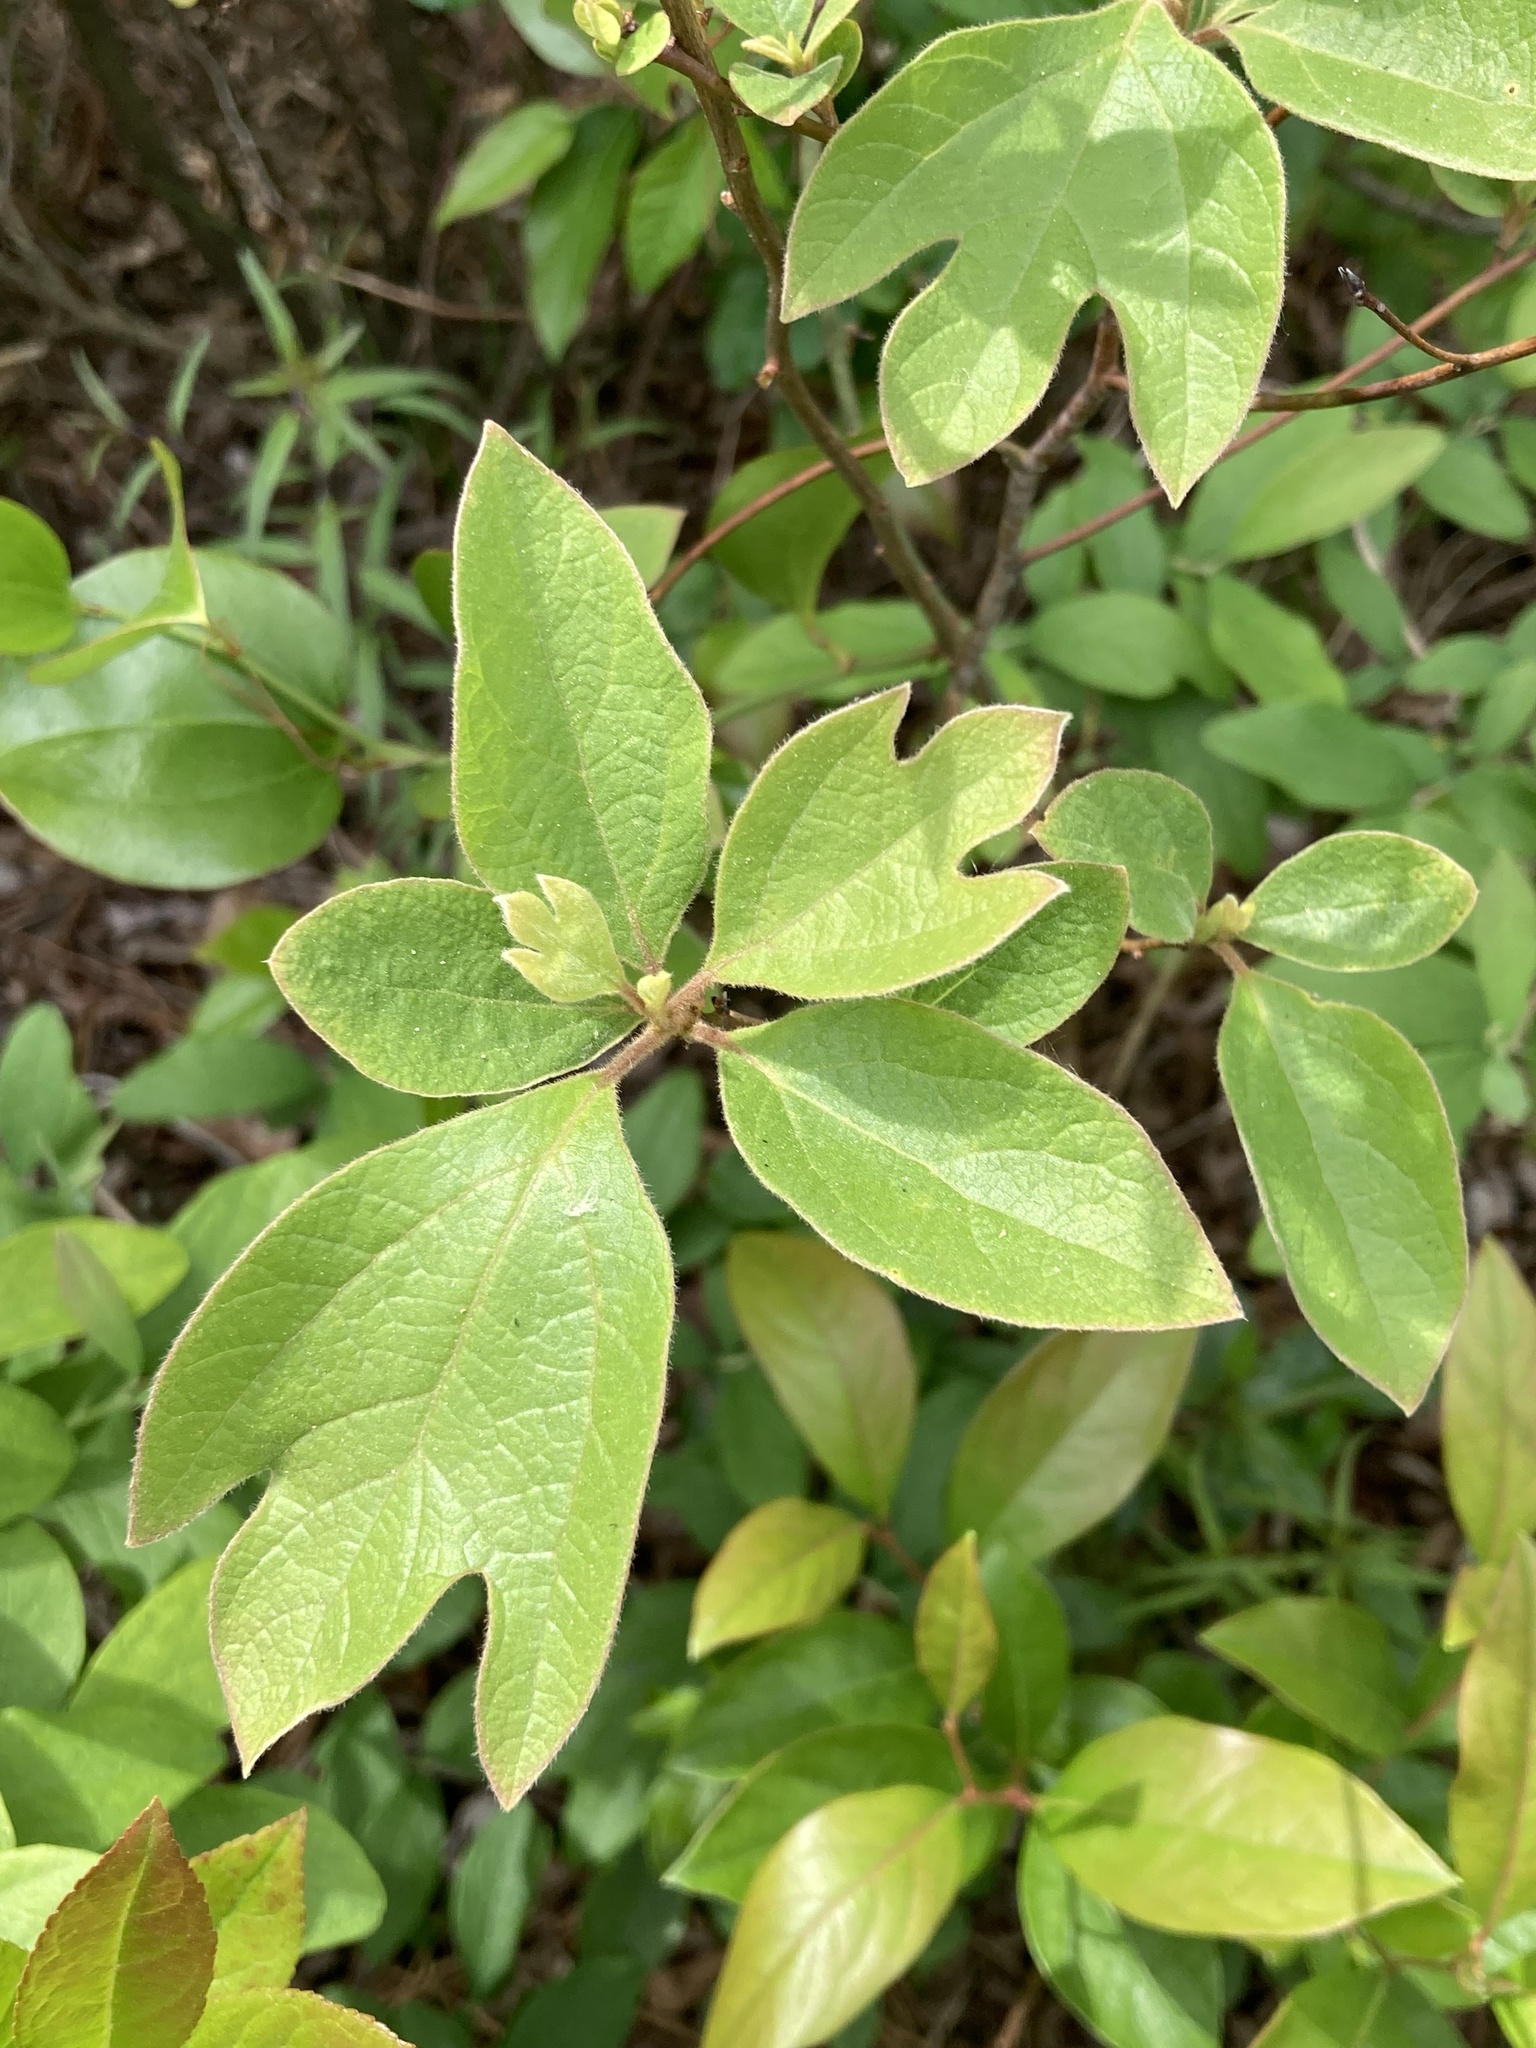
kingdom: Plantae
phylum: Tracheophyta
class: Magnoliopsida
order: Laurales
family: Lauraceae
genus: Sassafras
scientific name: Sassafras albidum
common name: Sassafras
